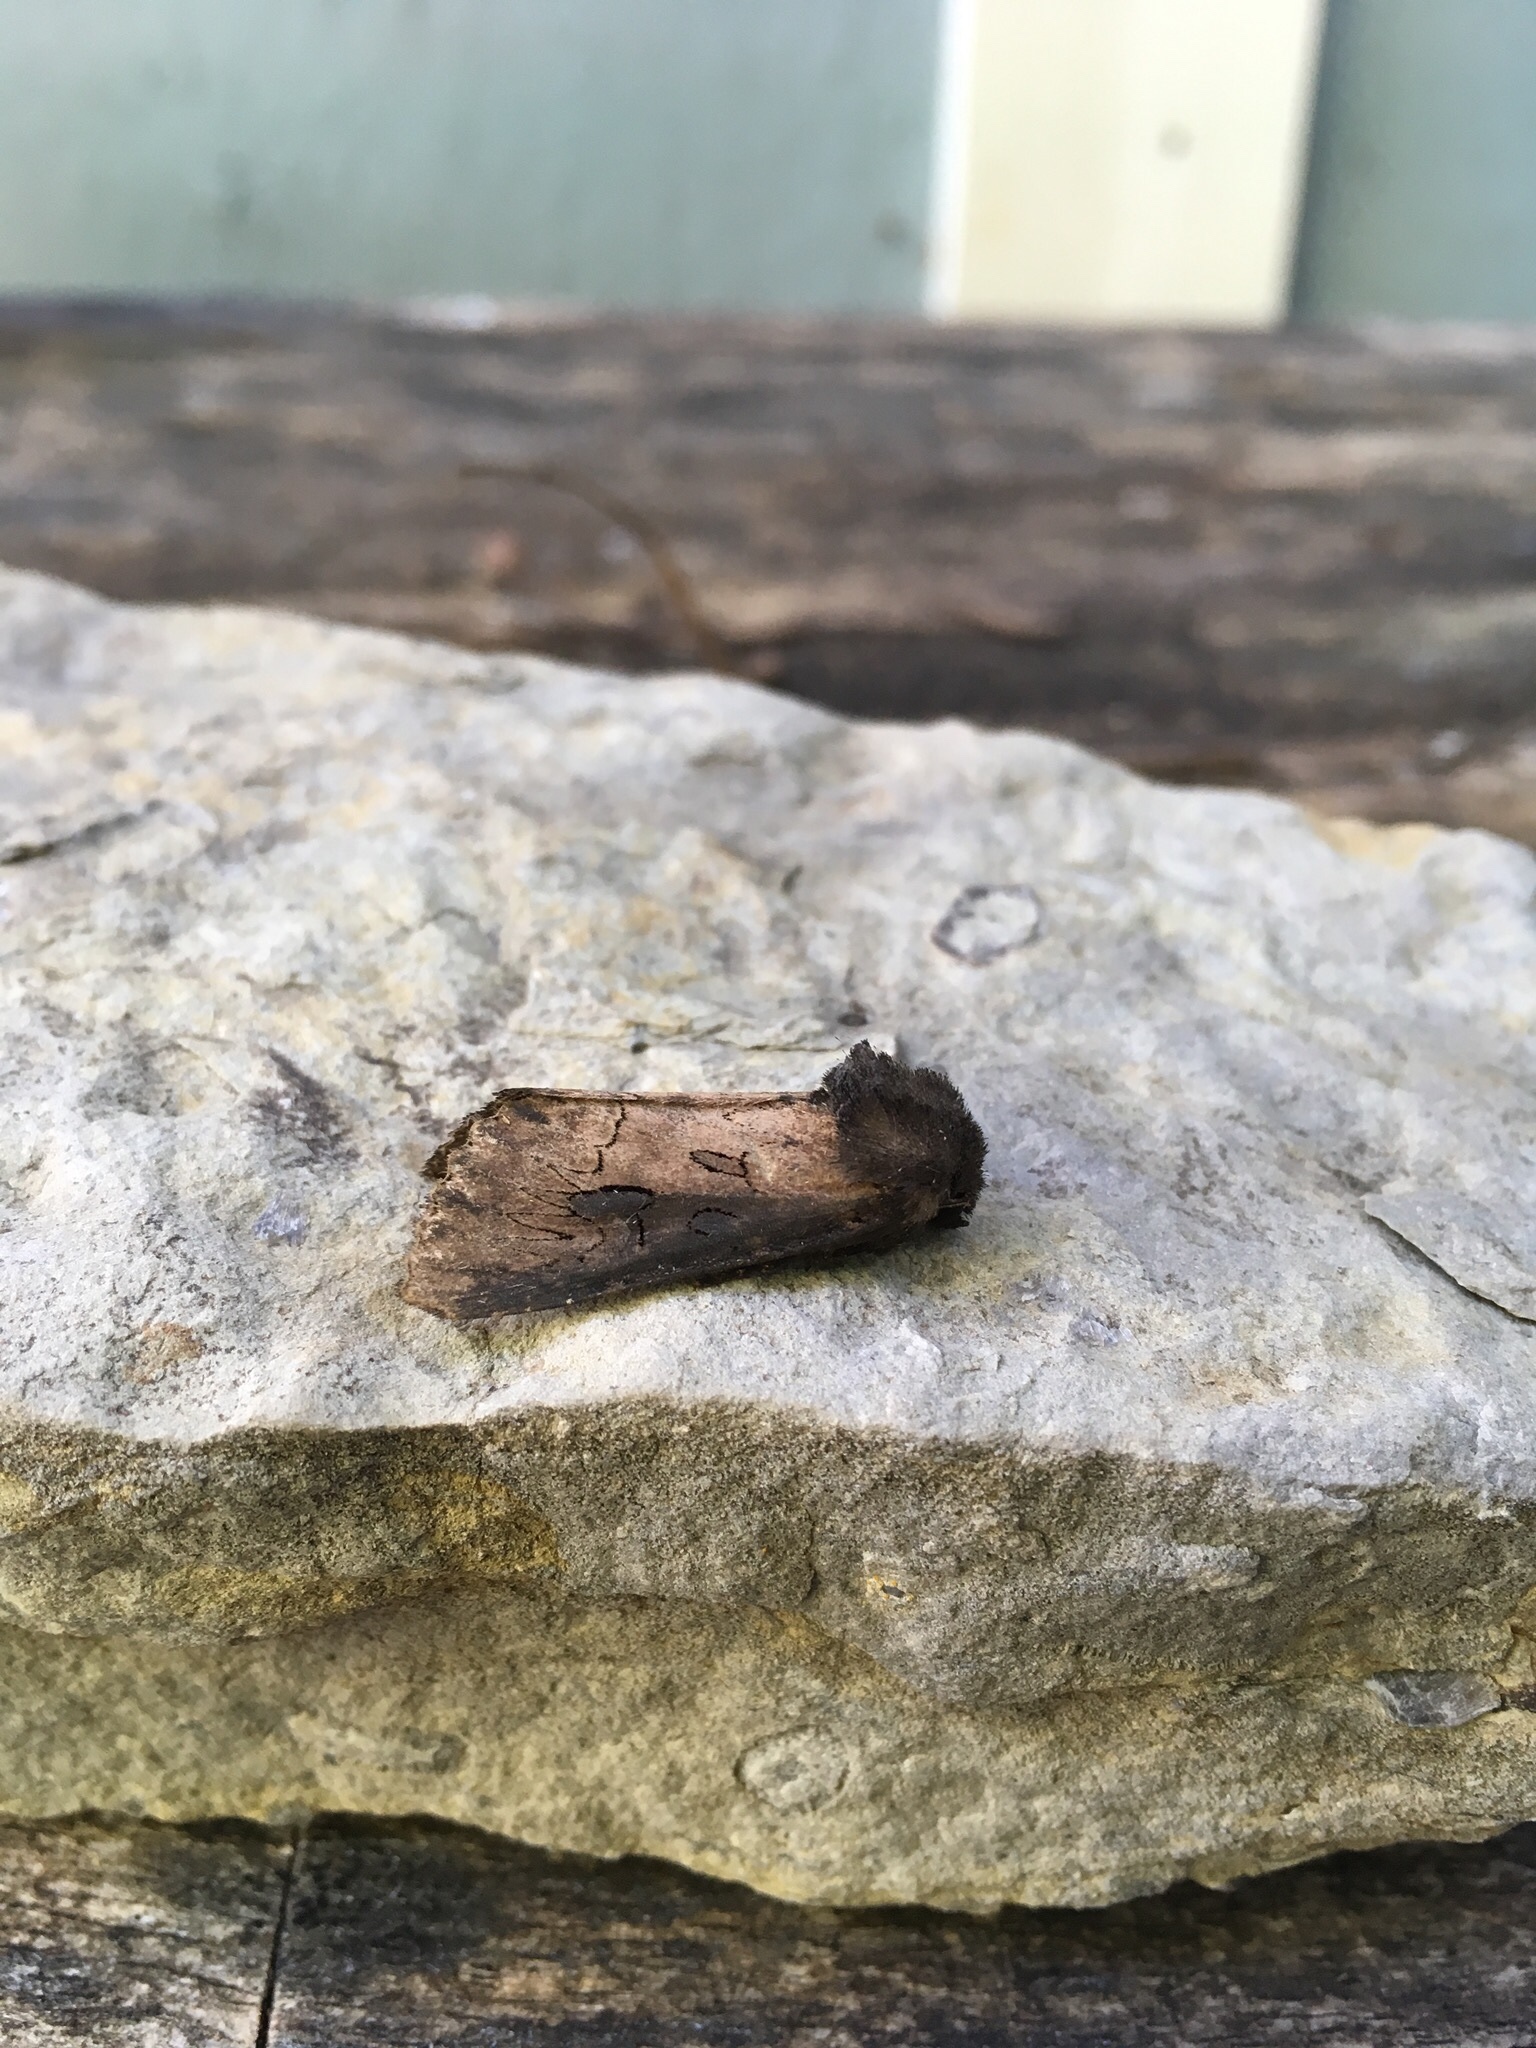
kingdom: Animalia
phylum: Arthropoda
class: Insecta
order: Lepidoptera
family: Noctuidae
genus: Macronoctua
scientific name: Macronoctua onusta
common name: Iris borer
